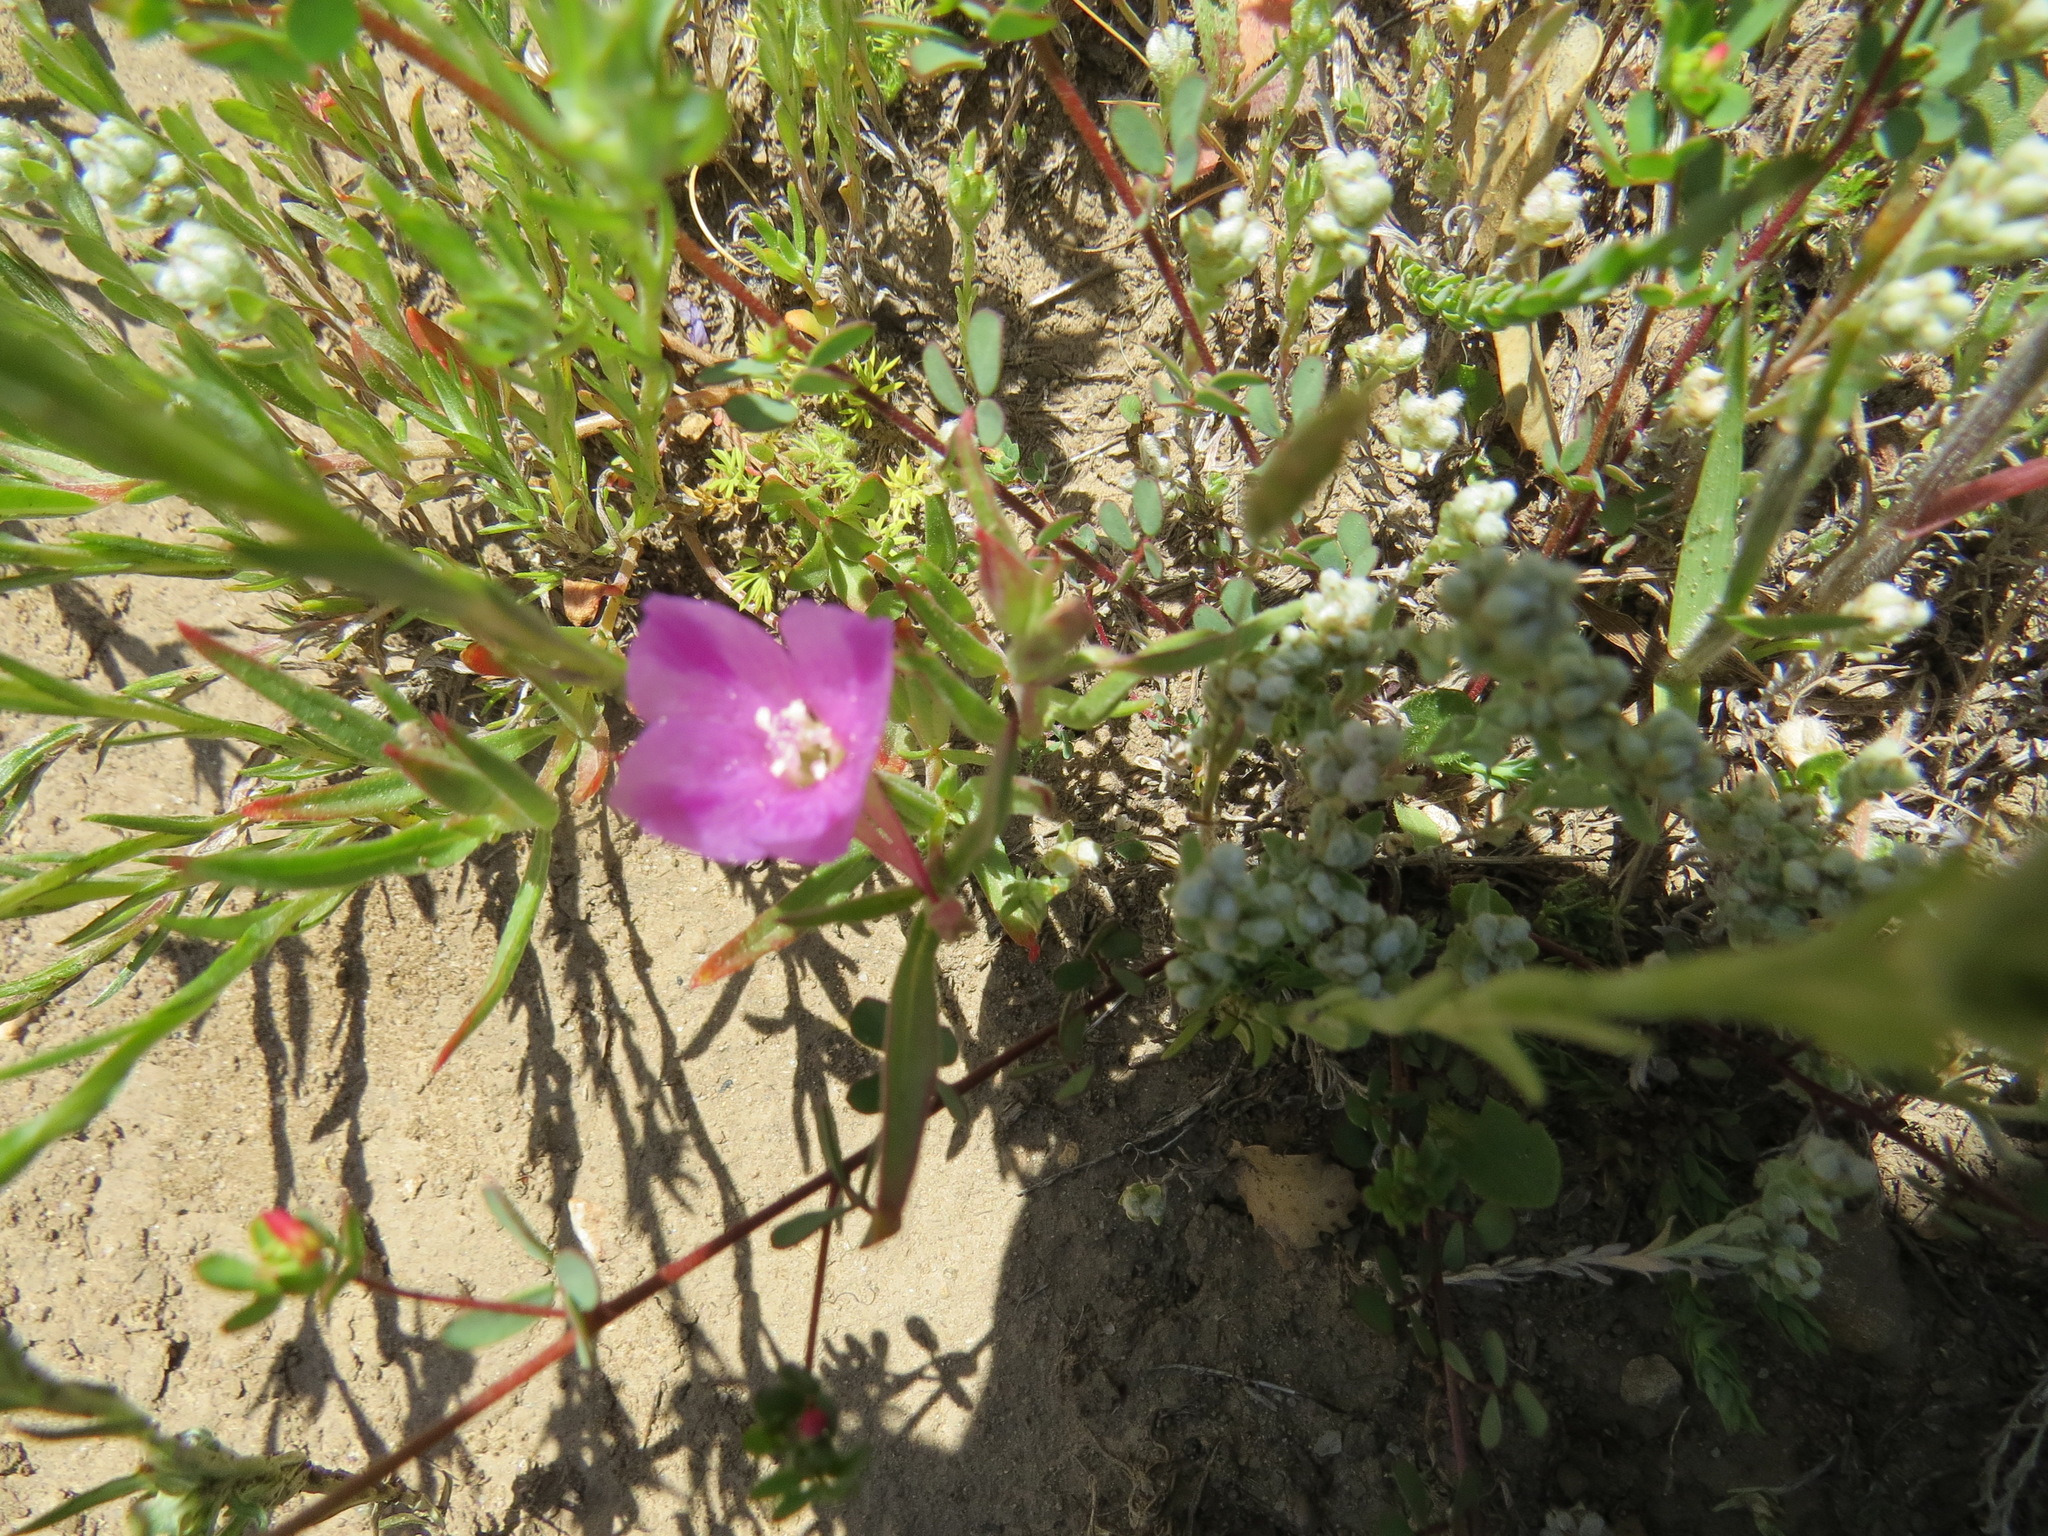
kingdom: Plantae
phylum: Tracheophyta
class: Magnoliopsida
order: Myrtales
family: Onagraceae
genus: Clarkia
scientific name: Clarkia purpurea
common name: Purple clarkia
